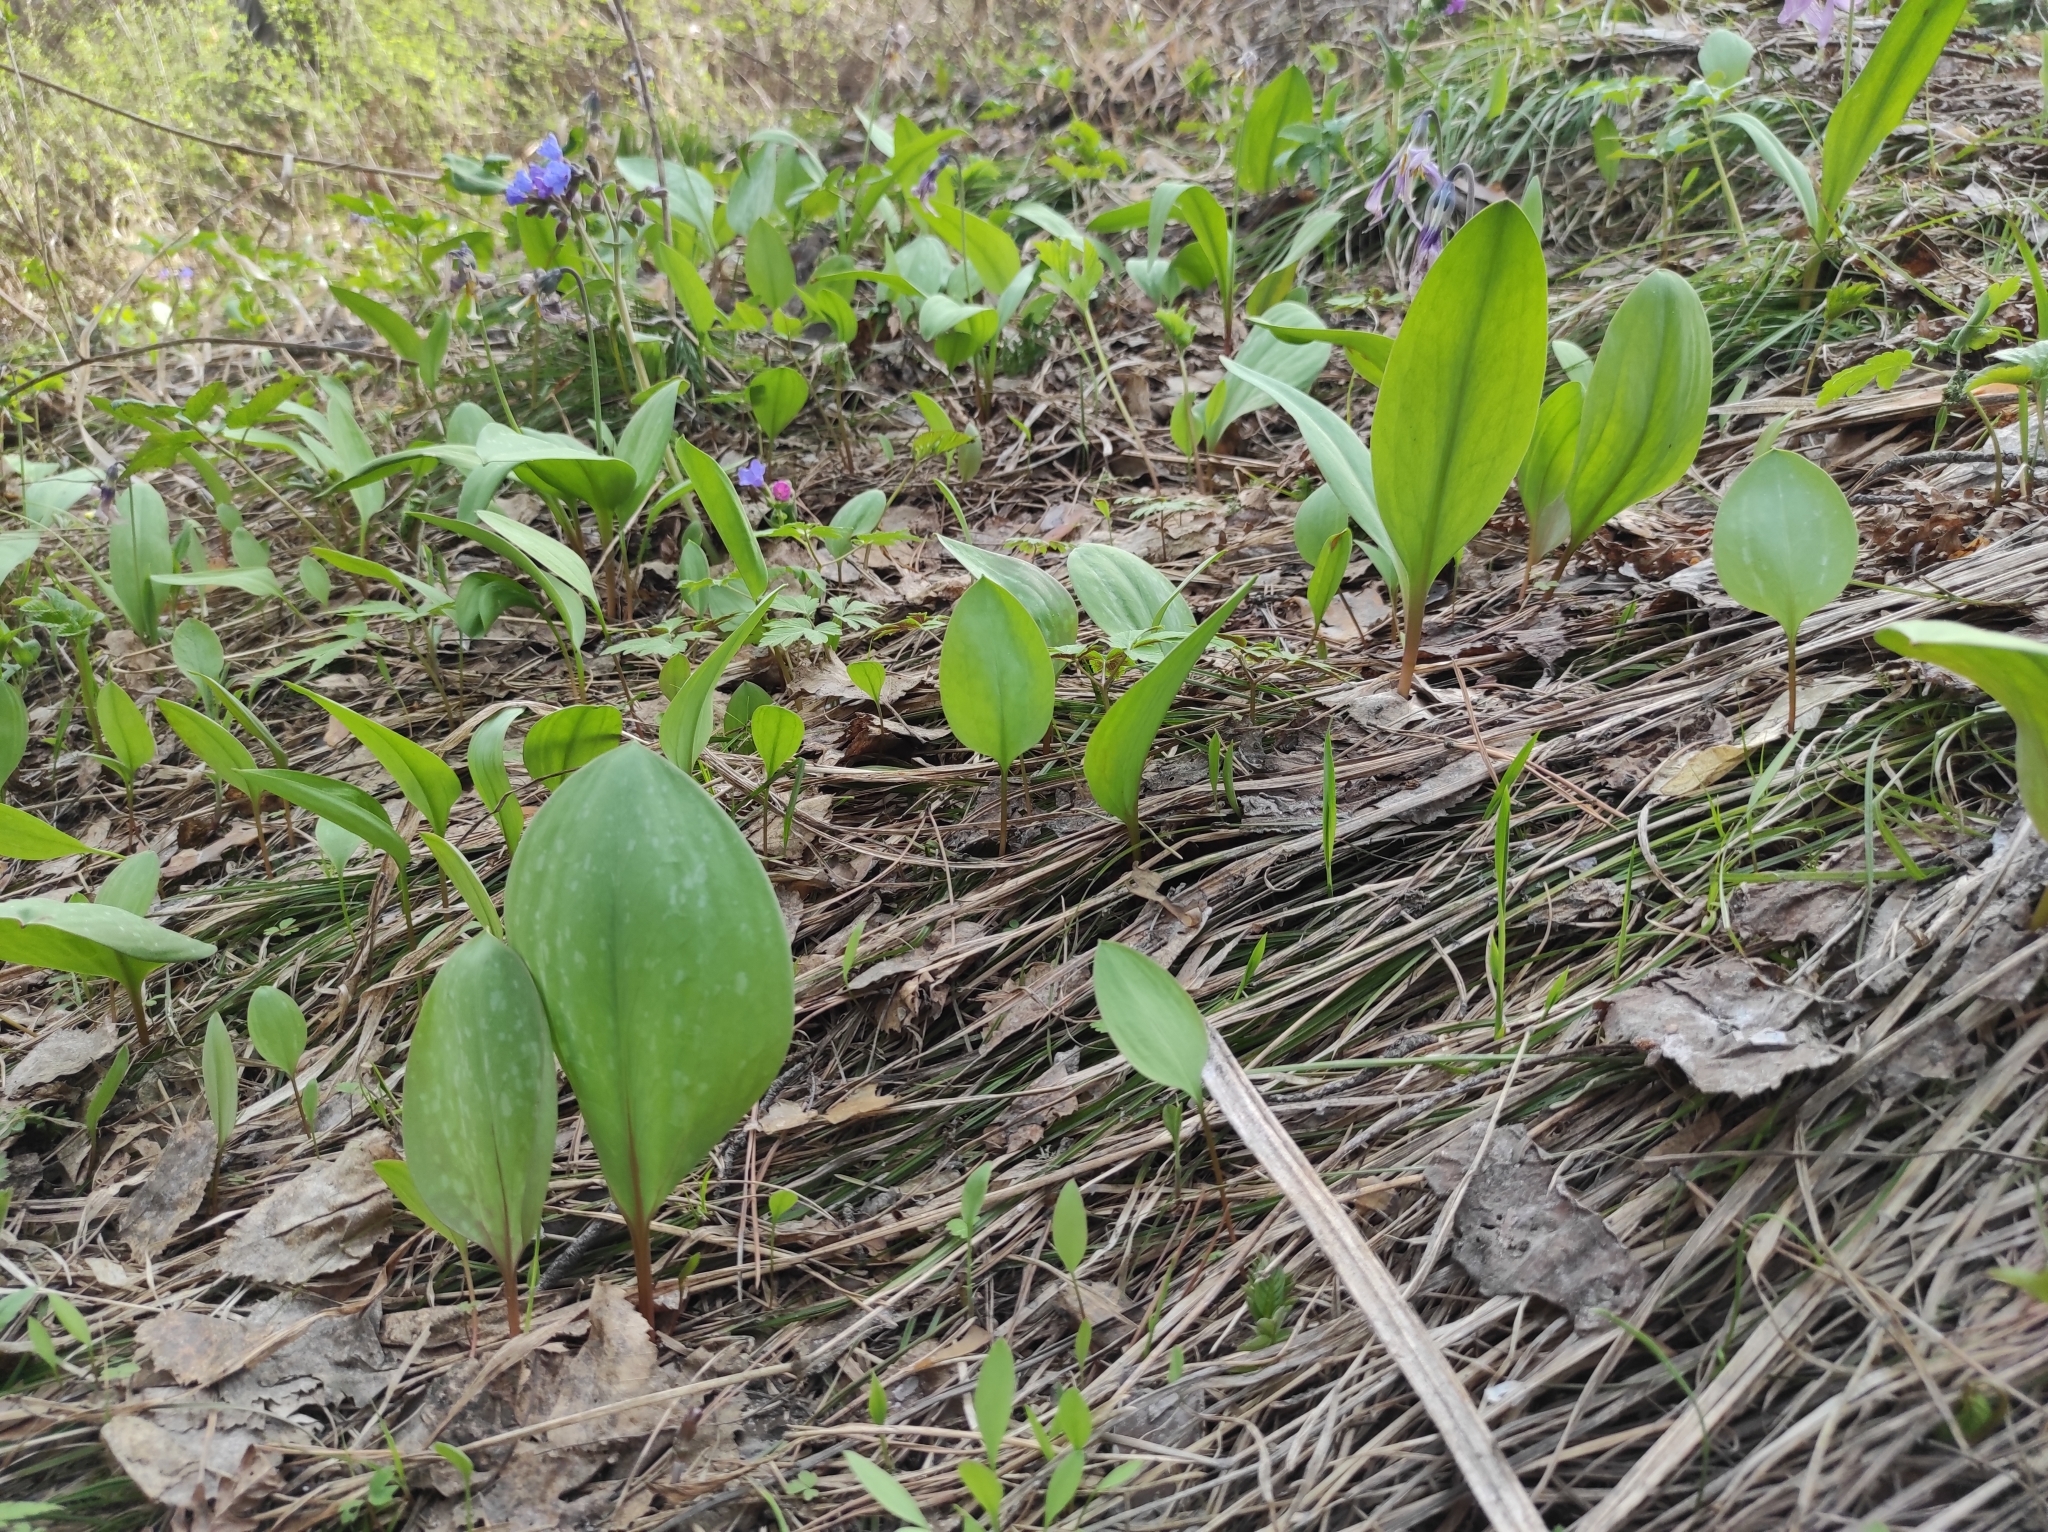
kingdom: Plantae
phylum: Tracheophyta
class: Liliopsida
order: Liliales
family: Liliaceae
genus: Erythronium
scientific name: Erythronium sibiricum
